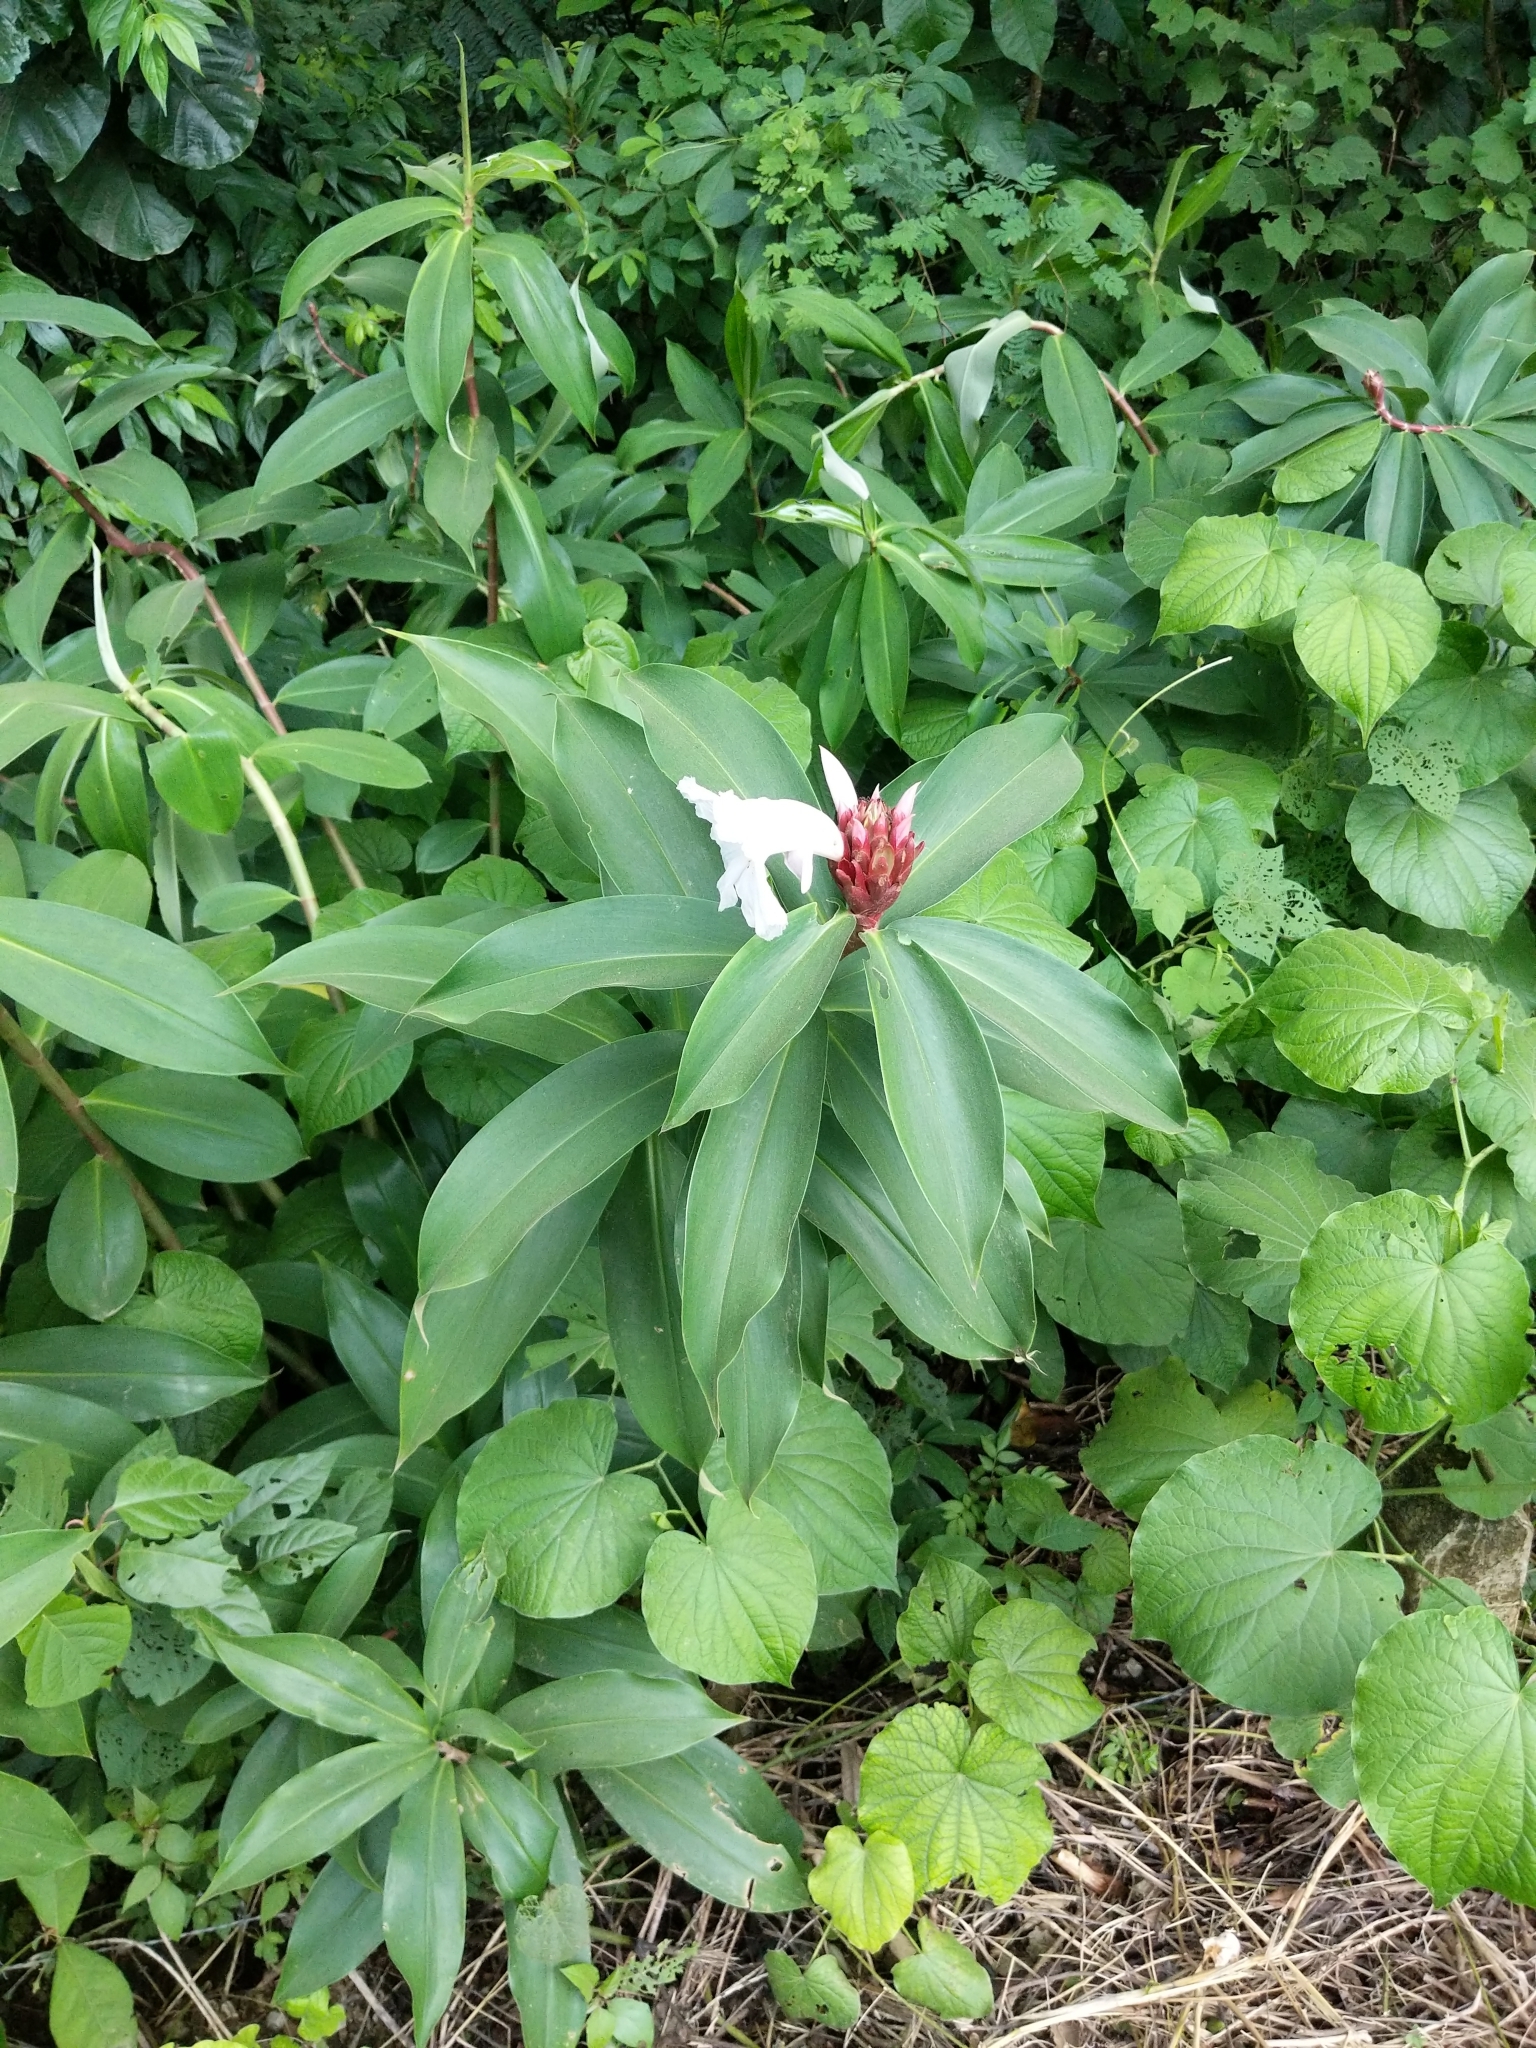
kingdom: Plantae
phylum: Tracheophyta
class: Liliopsida
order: Zingiberales
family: Costaceae
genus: Hellenia
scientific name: Hellenia speciosa
